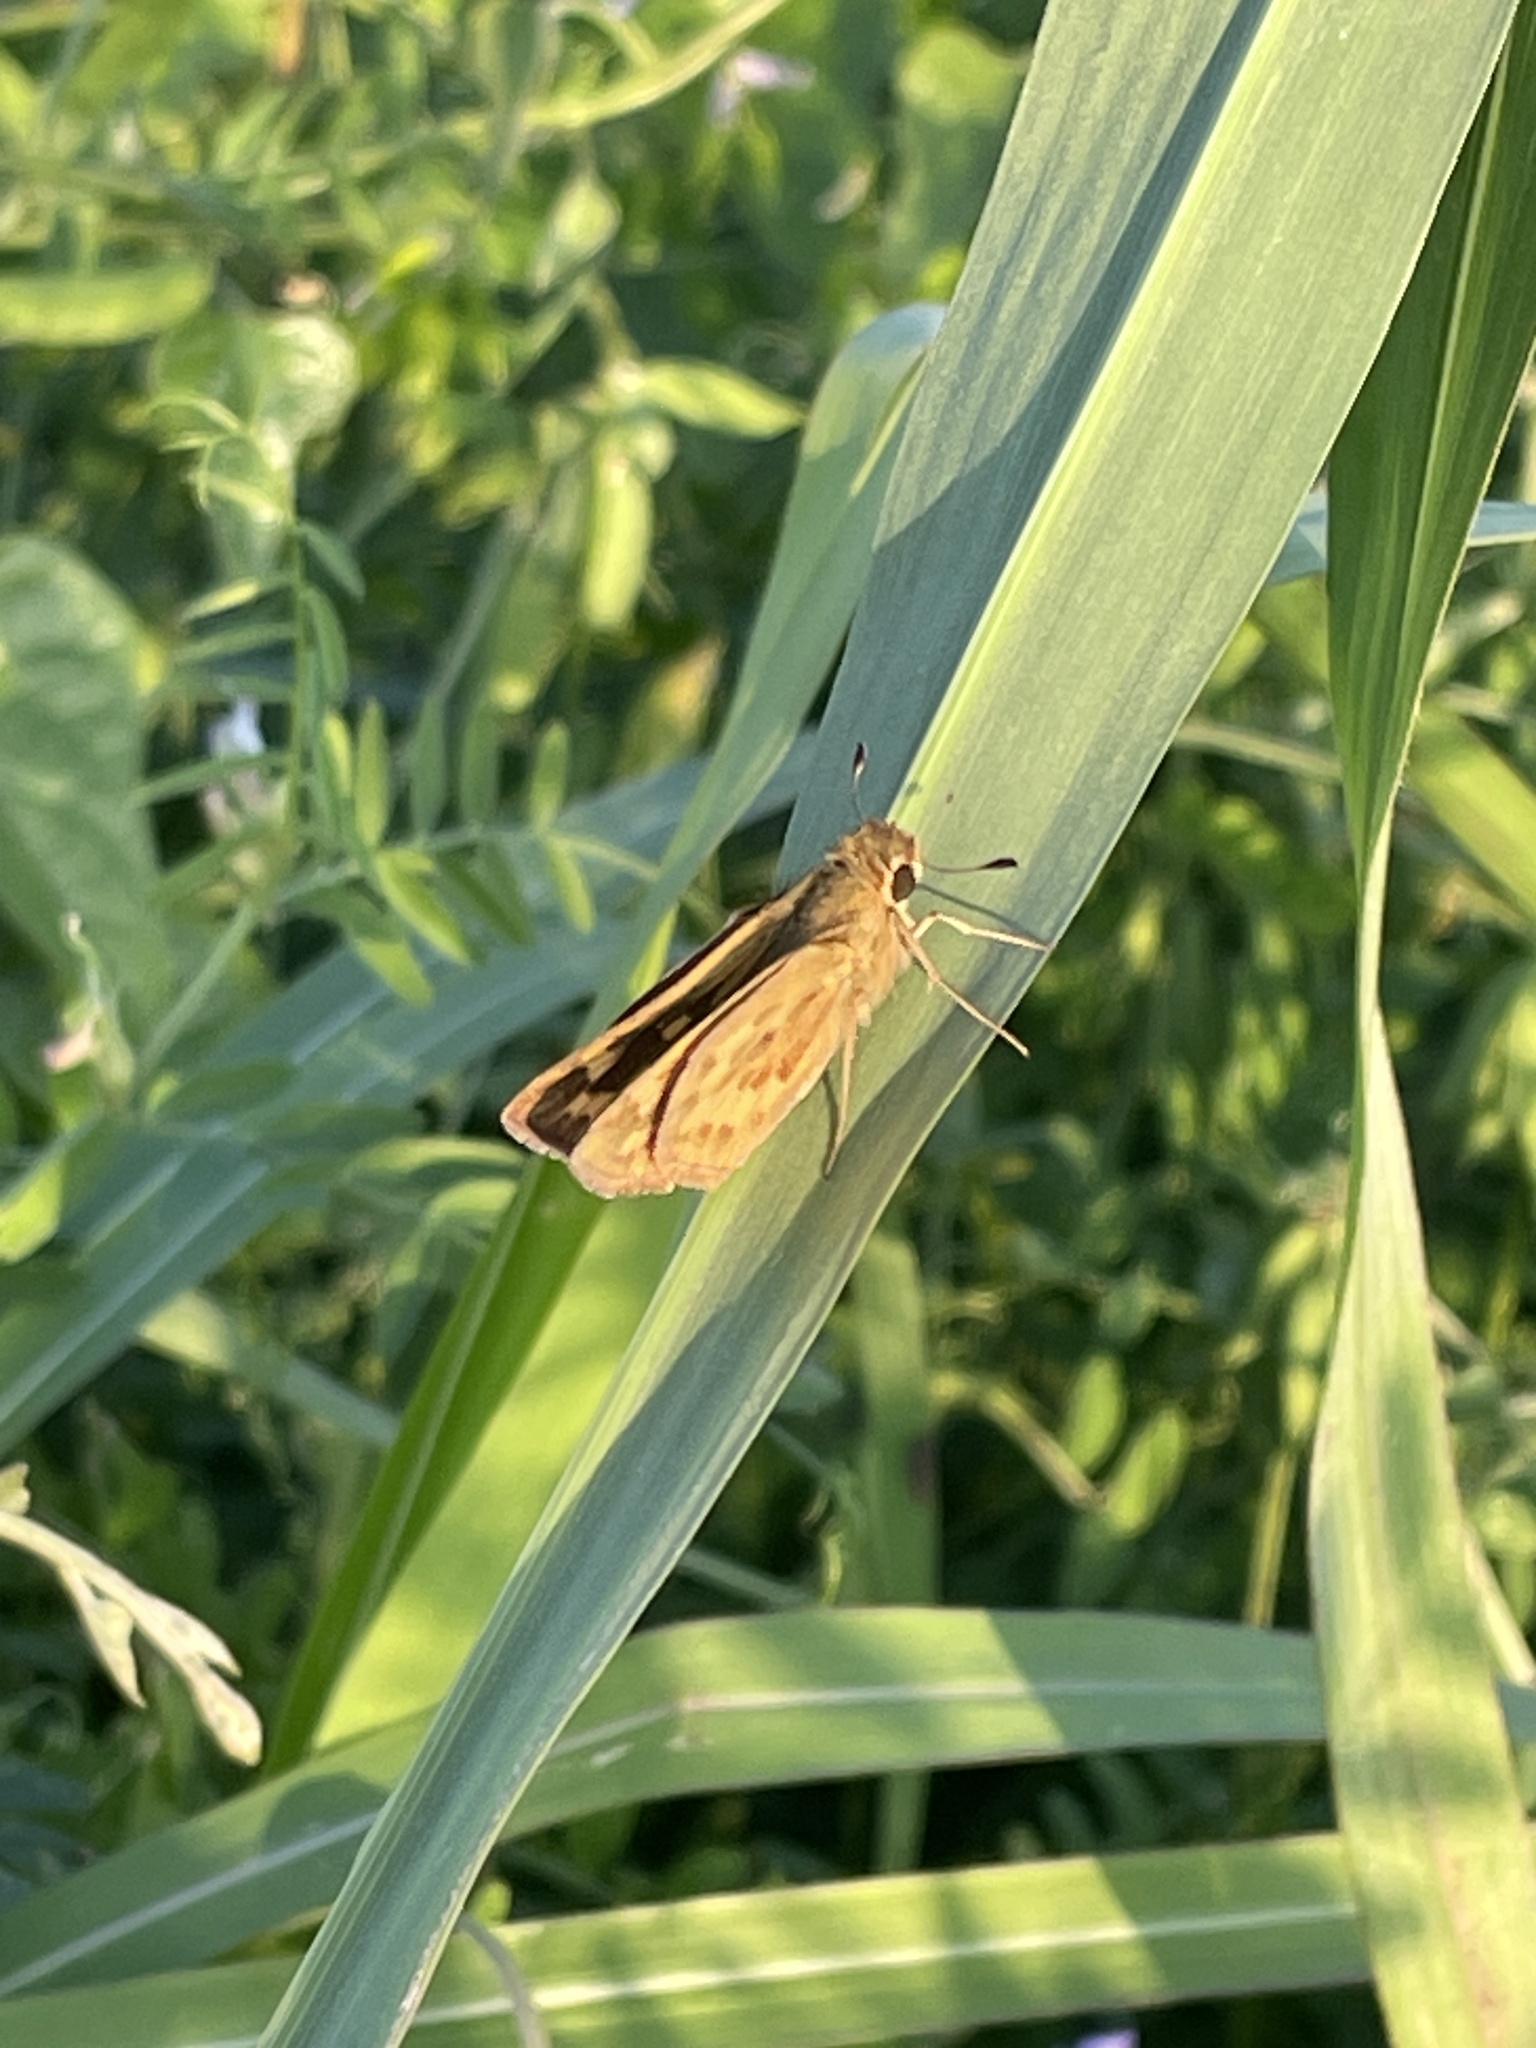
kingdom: Animalia
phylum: Arthropoda
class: Insecta
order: Lepidoptera
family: Hesperiidae
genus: Hylephila
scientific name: Hylephila phyleus
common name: Fiery skipper
